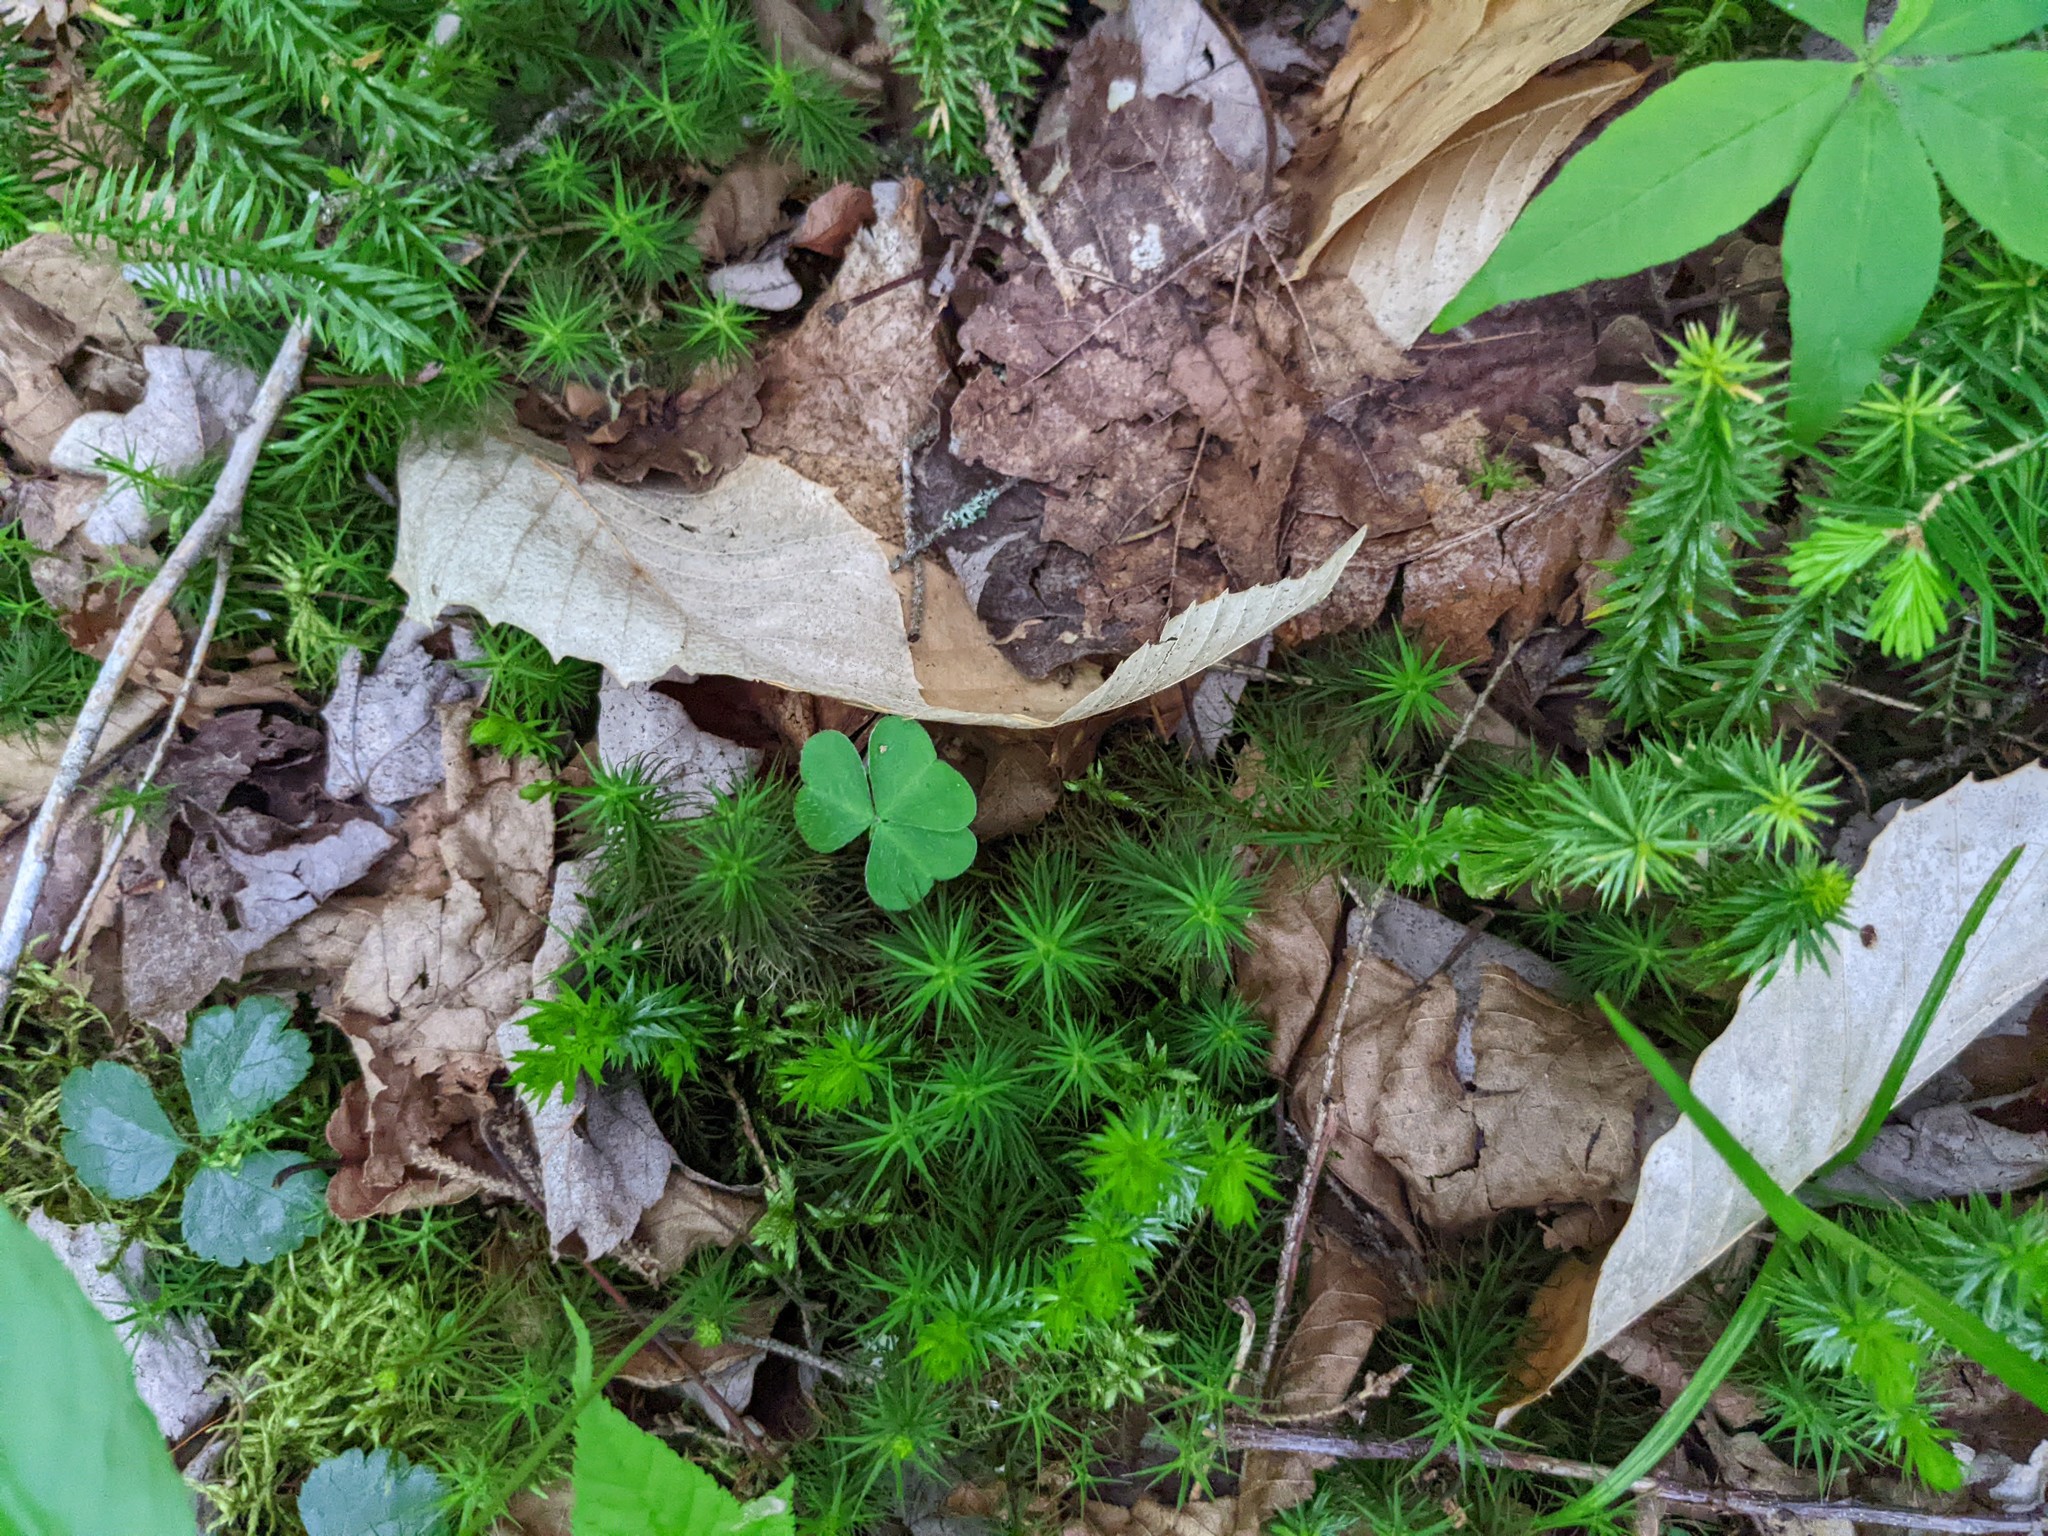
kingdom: Plantae
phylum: Tracheophyta
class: Magnoliopsida
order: Fagales
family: Fagaceae
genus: Fagus
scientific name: Fagus grandifolia
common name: American beech
